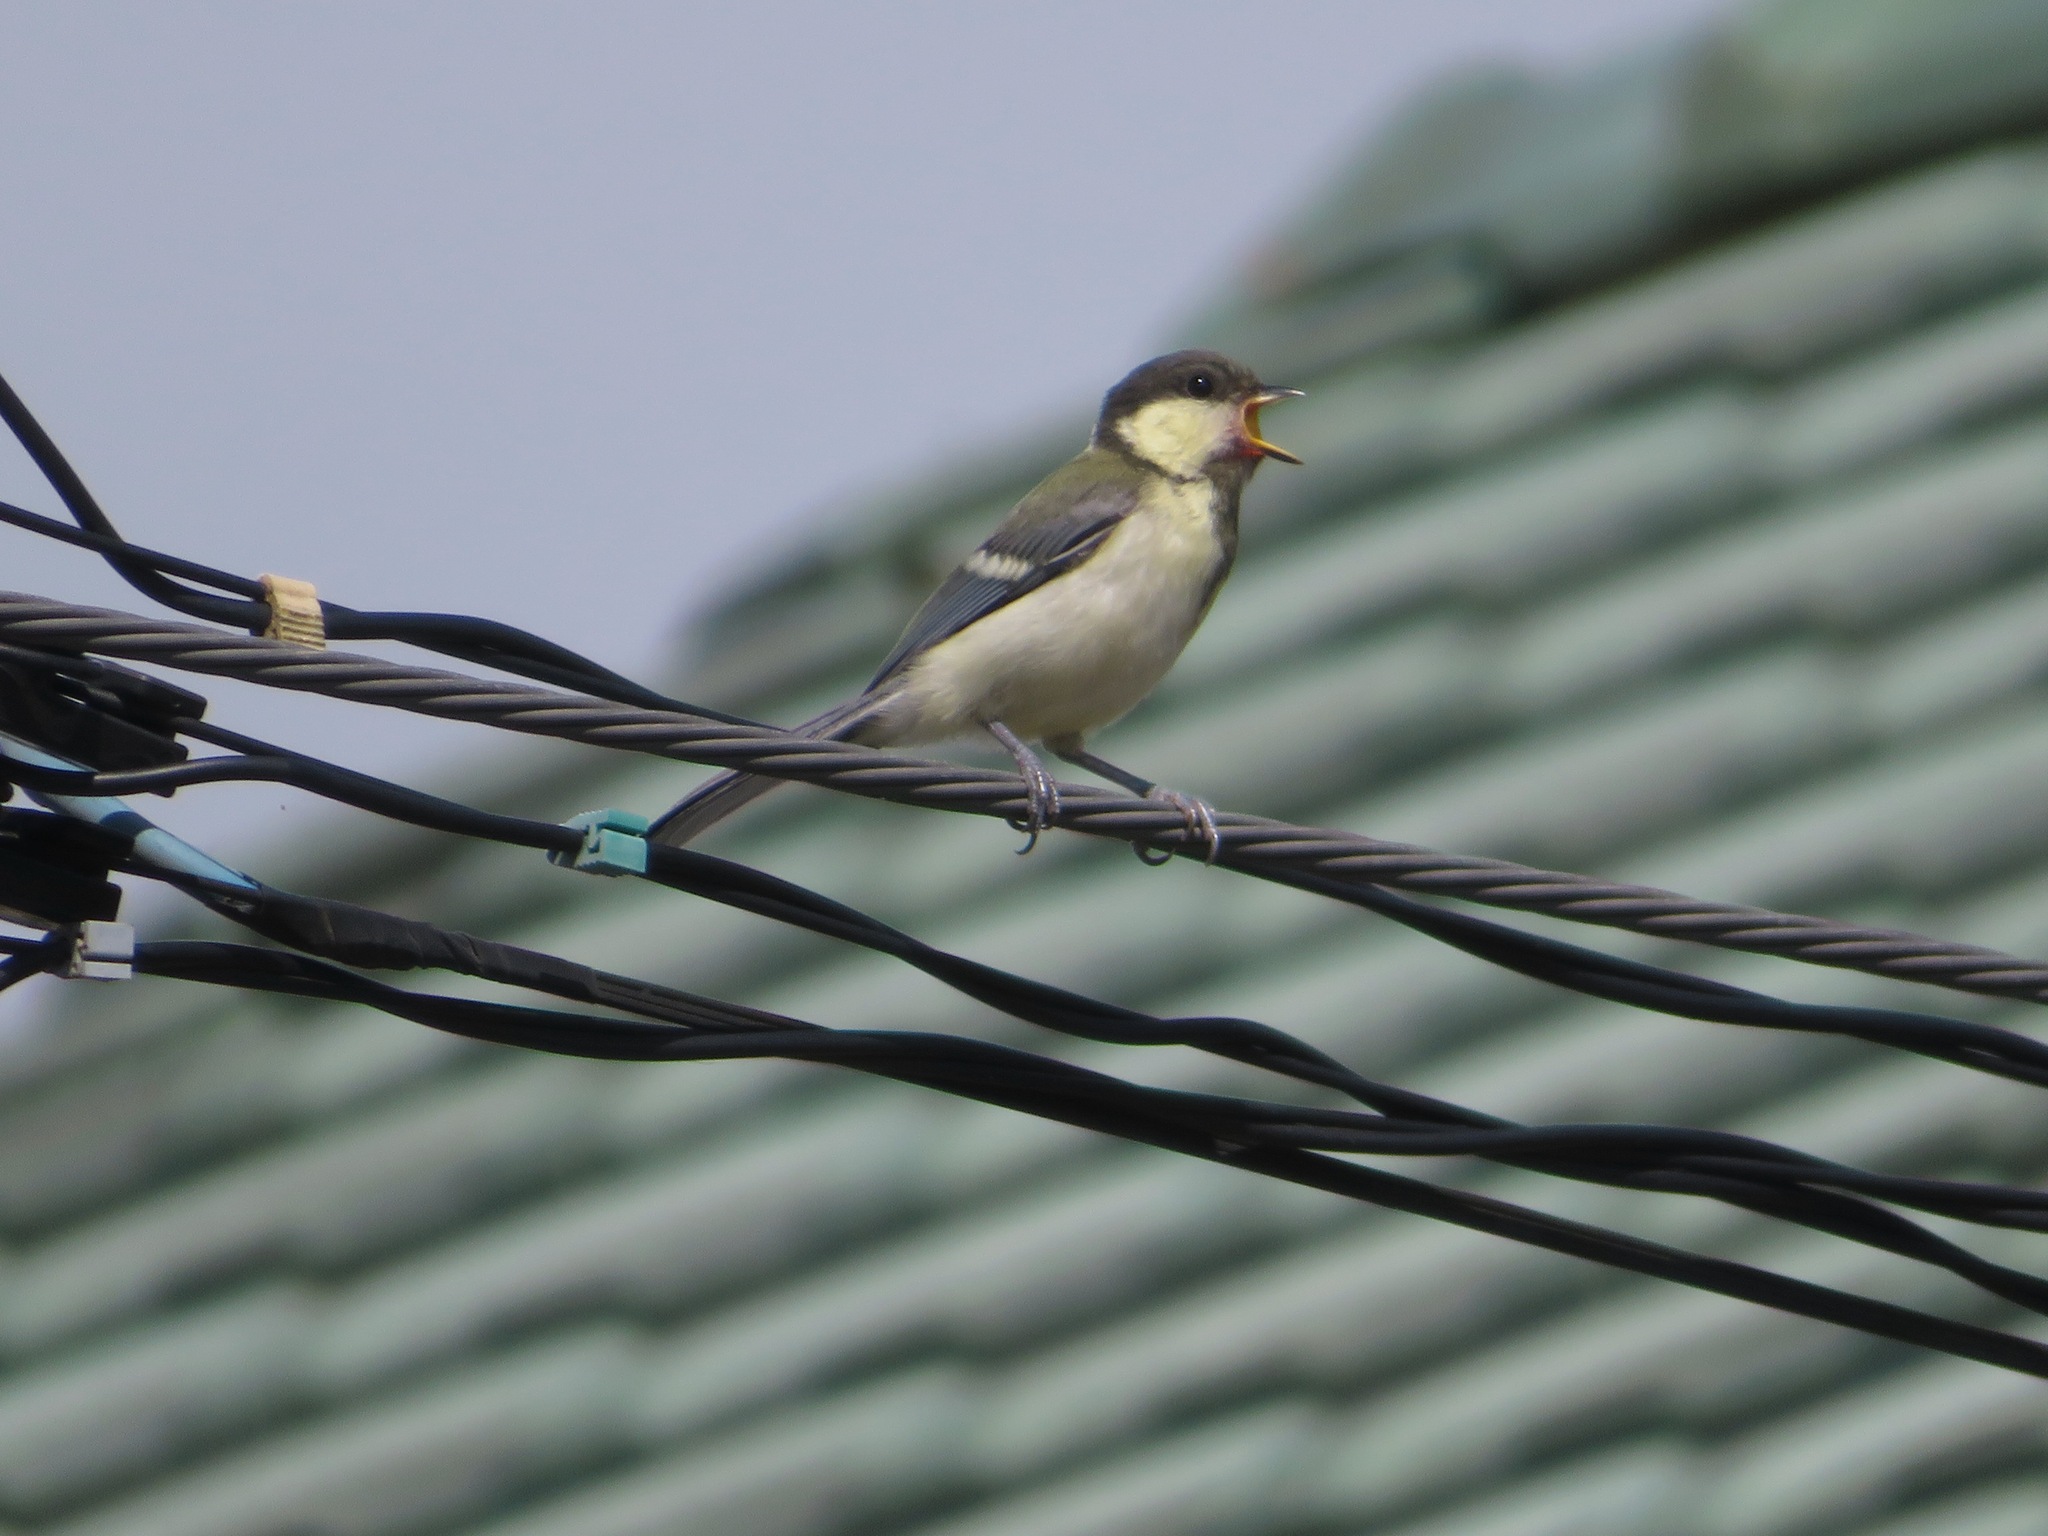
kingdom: Animalia
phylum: Chordata
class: Aves
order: Passeriformes
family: Paridae
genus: Parus
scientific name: Parus minor
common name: Japanese tit
